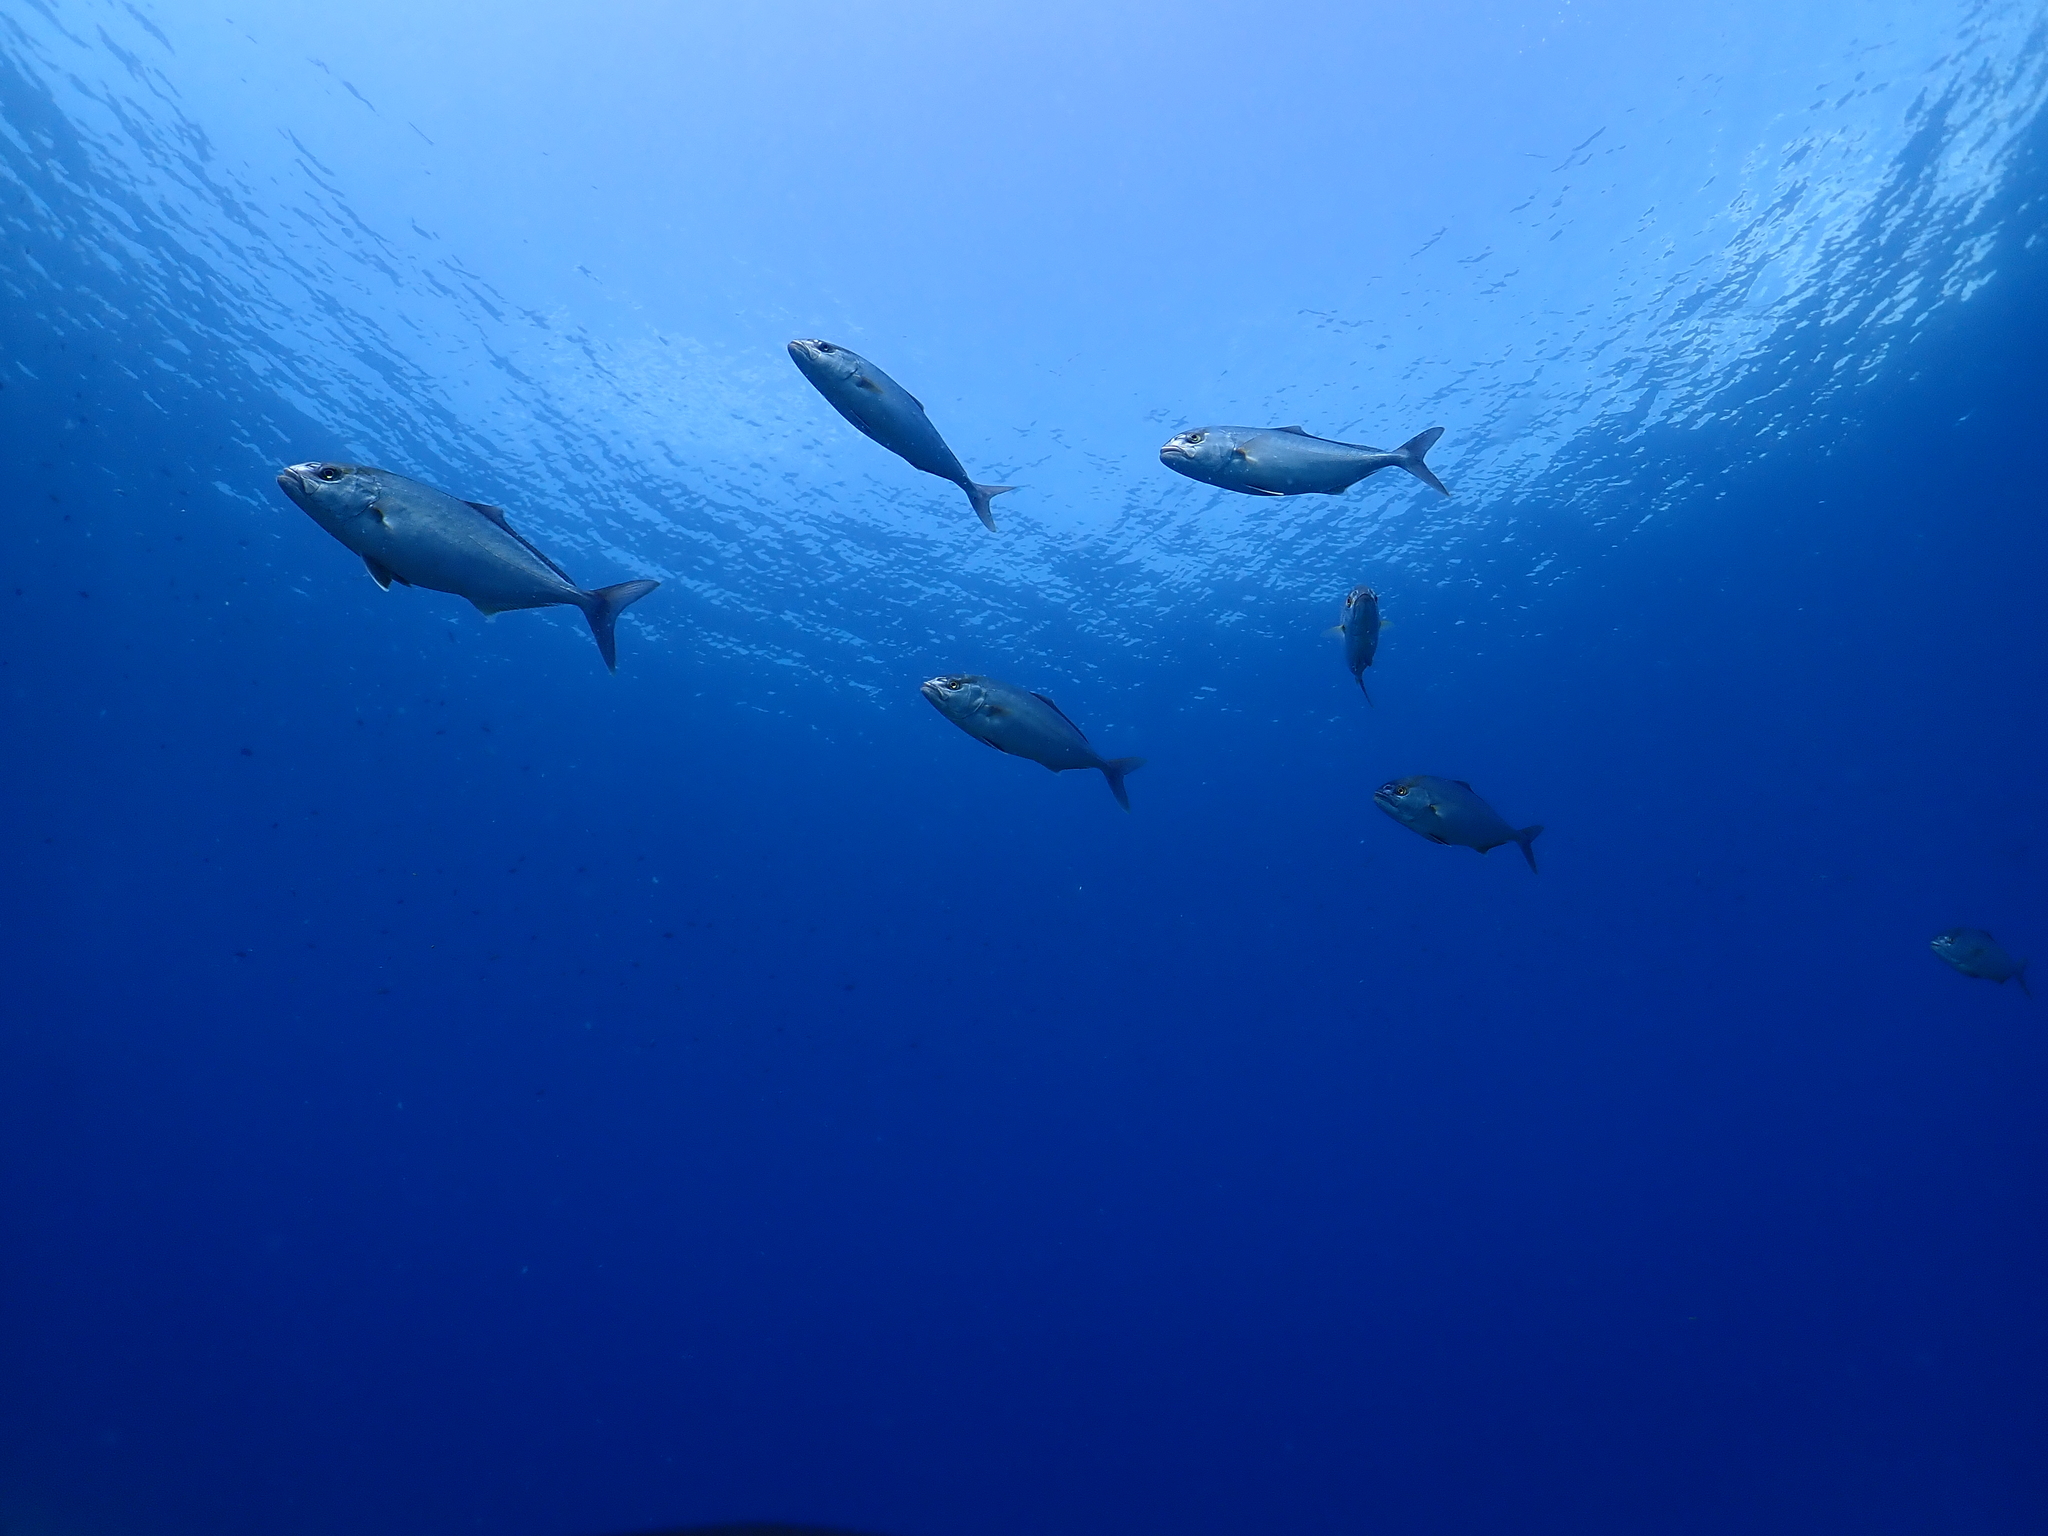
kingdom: Animalia
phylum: Chordata
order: Perciformes
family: Carangidae
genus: Seriola
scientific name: Seriola dumerili
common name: Greater amberjack
